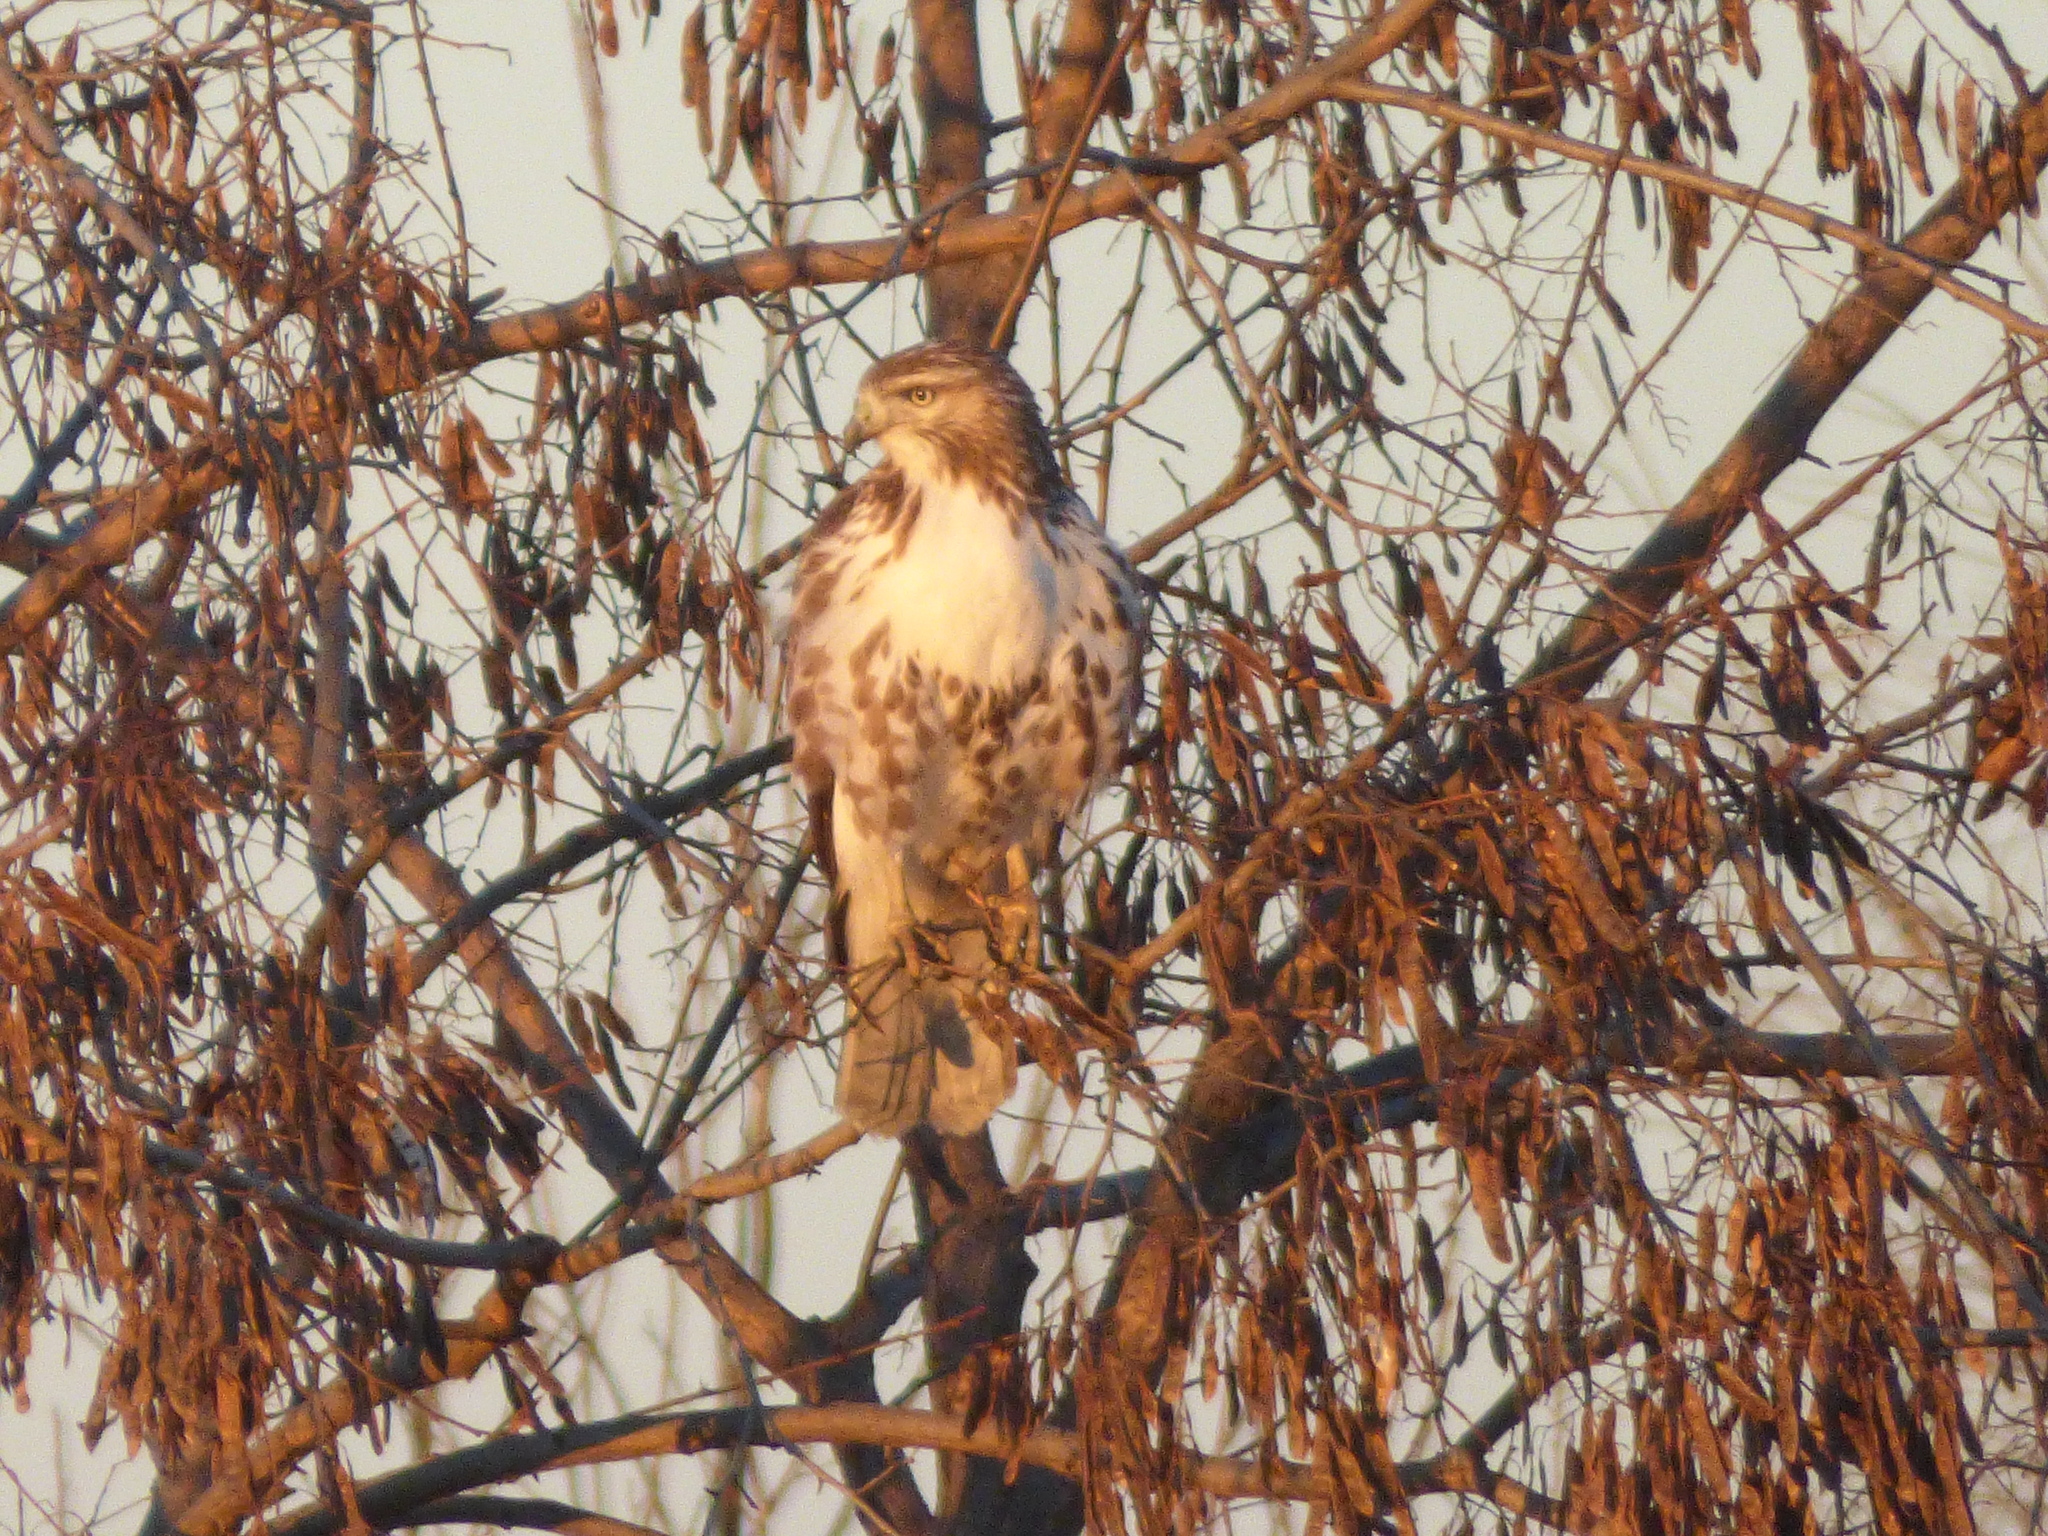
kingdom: Animalia
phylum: Chordata
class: Aves
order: Accipitriformes
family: Accipitridae
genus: Buteo
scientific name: Buteo jamaicensis
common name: Red-tailed hawk
